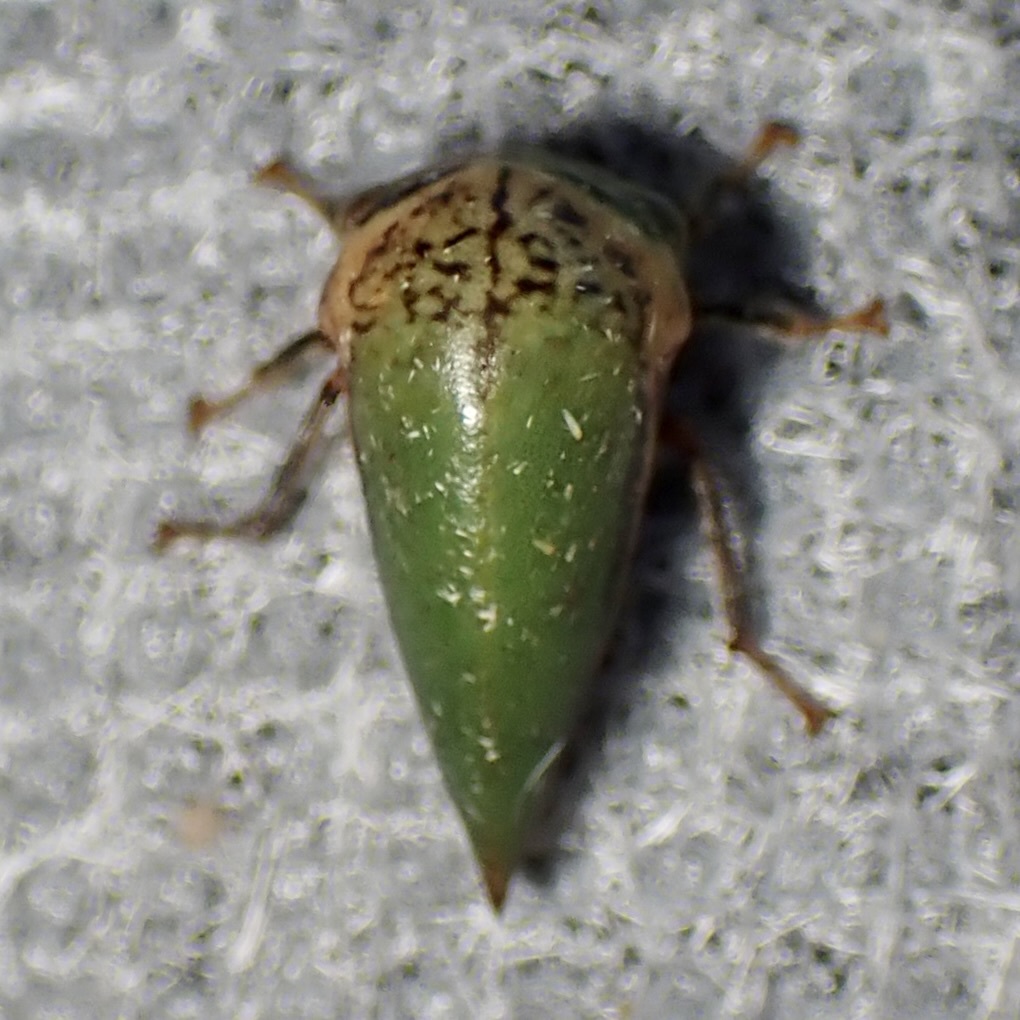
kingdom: Animalia
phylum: Arthropoda
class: Insecta
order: Hemiptera
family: Membracidae
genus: Stictopelta
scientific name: Stictopelta marmorata
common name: Treehopper
